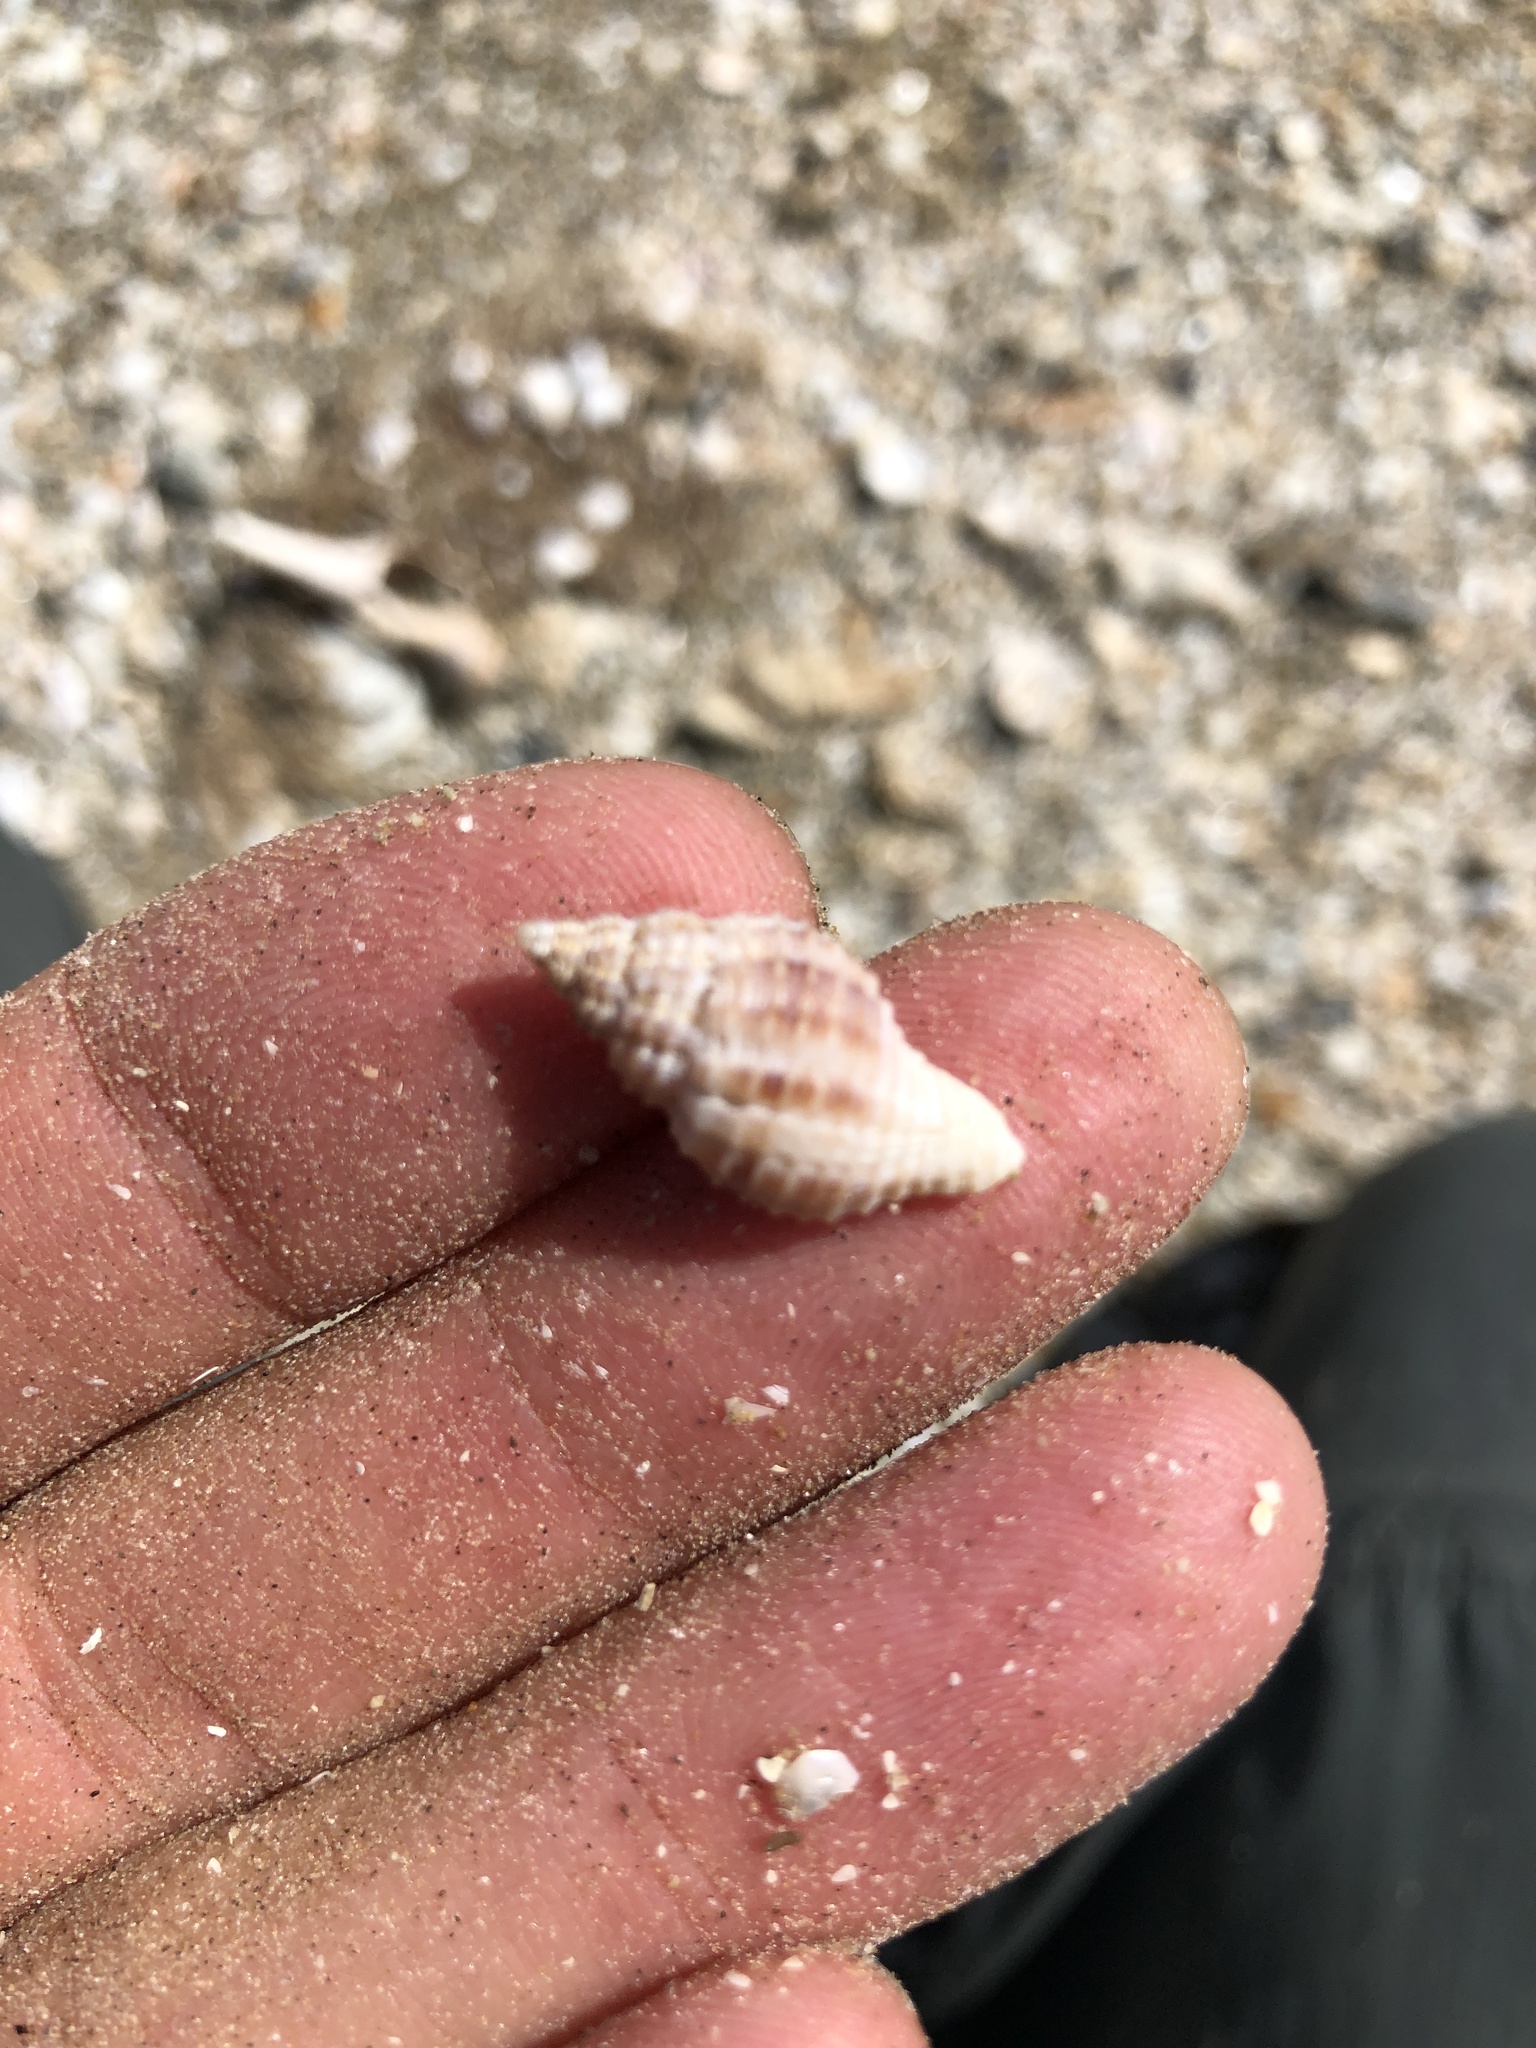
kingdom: Animalia
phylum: Mollusca
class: Gastropoda
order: Neogastropoda
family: Pisaniidae
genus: Solenosteira
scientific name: Solenosteira cancellaria
